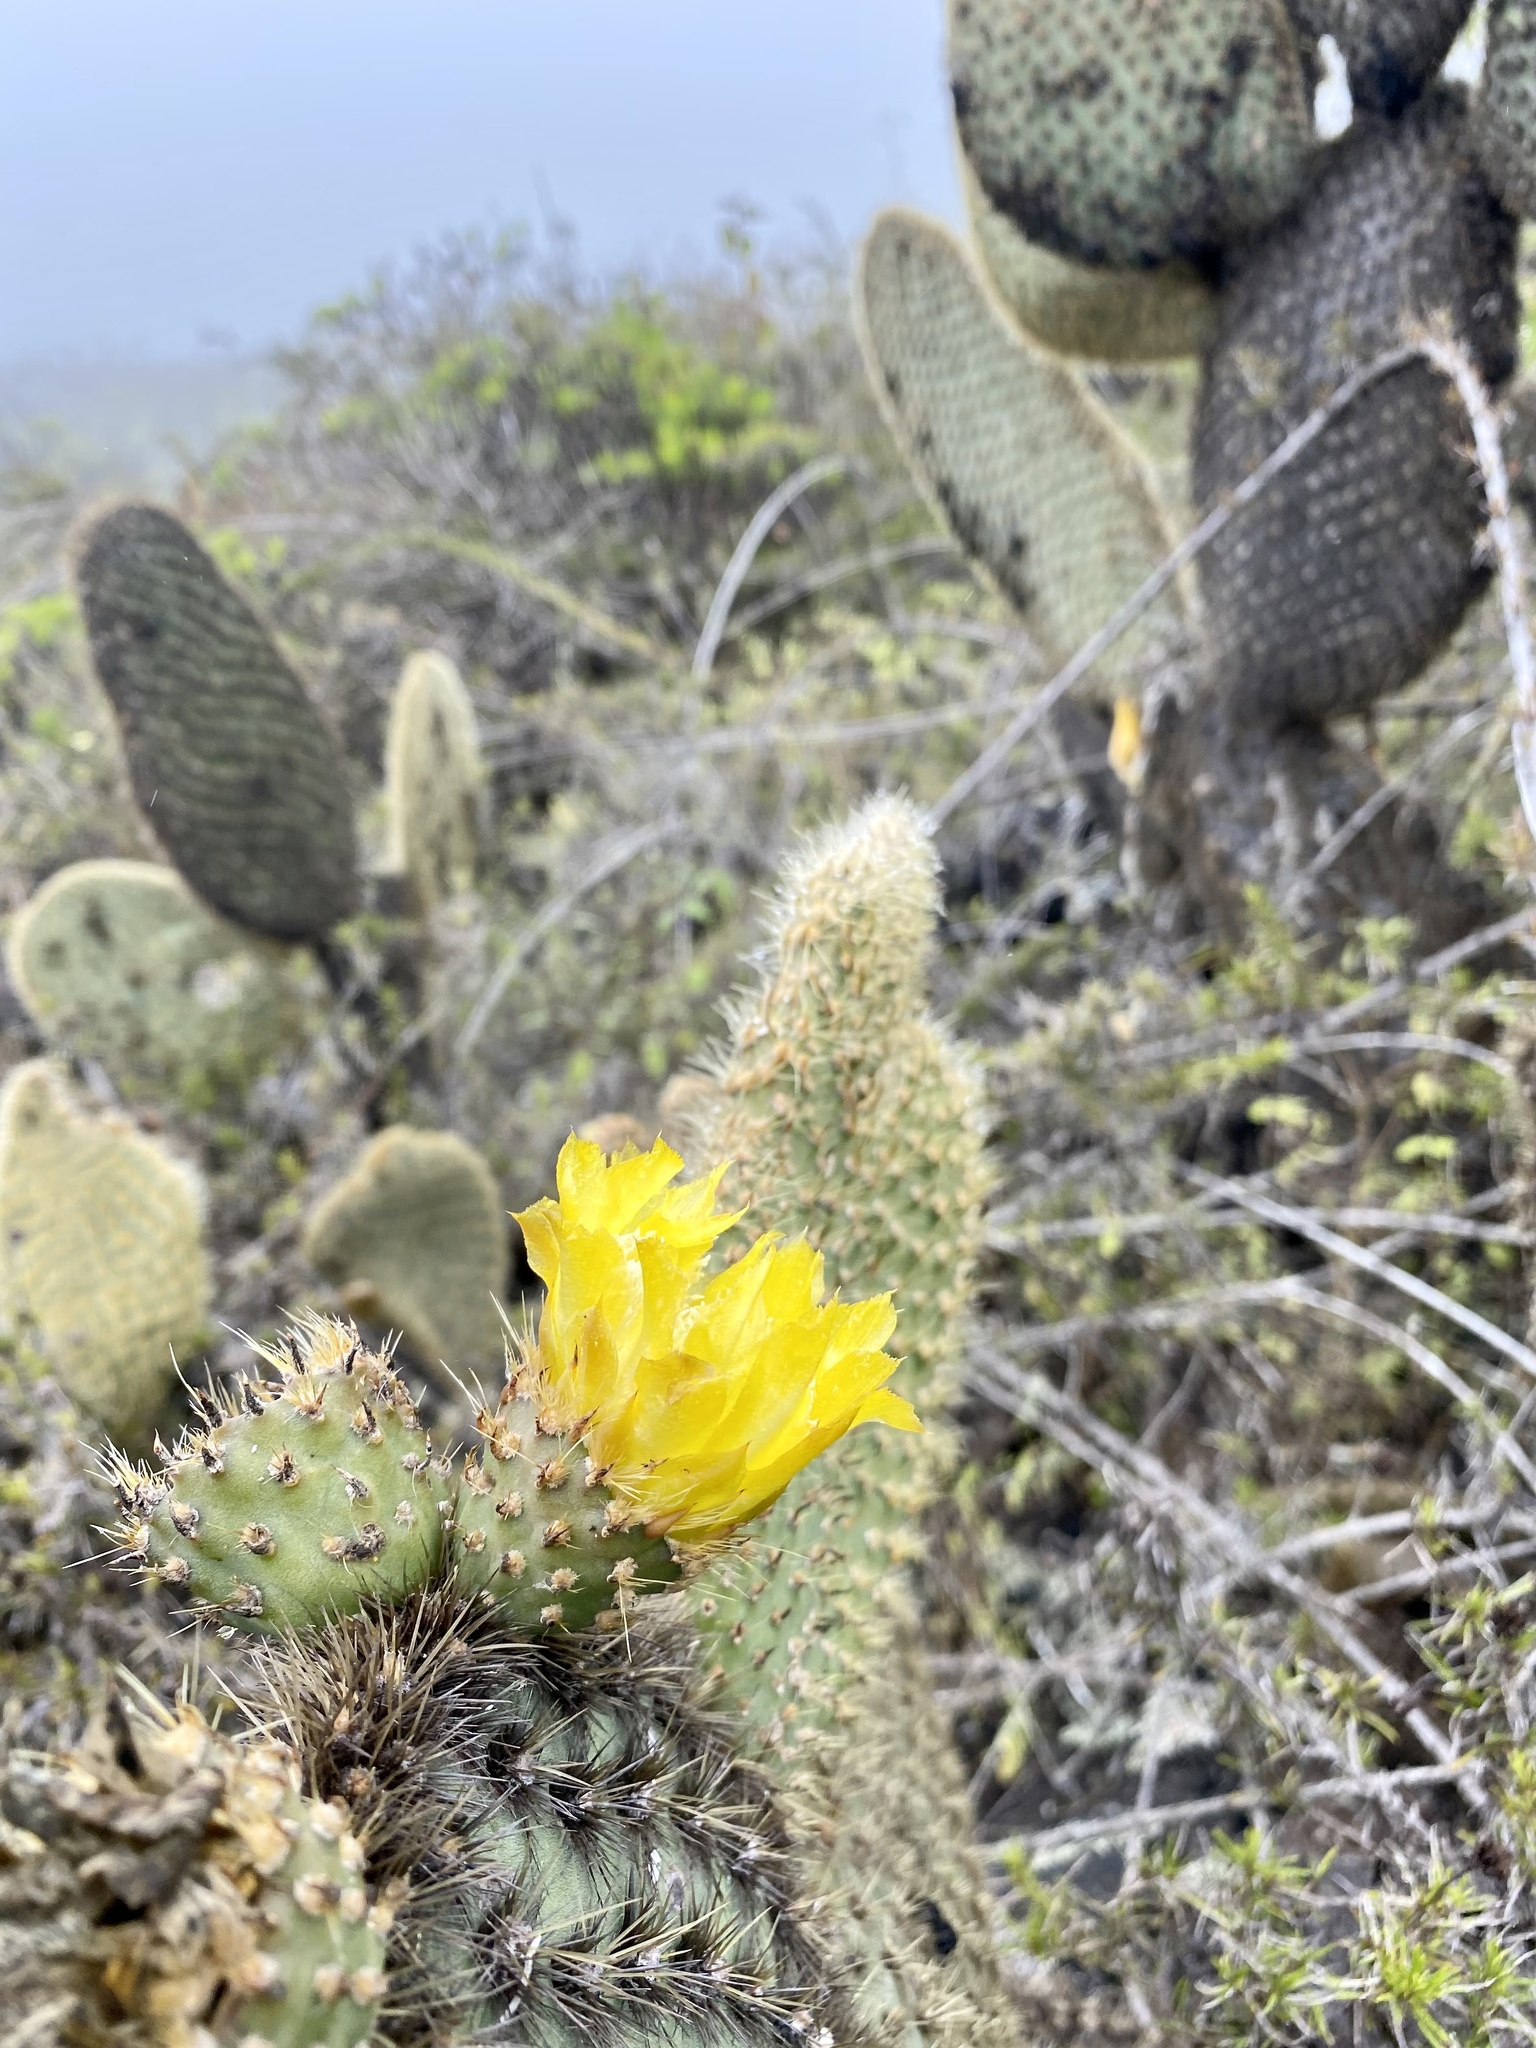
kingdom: Plantae
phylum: Tracheophyta
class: Magnoliopsida
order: Caryophyllales
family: Cactaceae
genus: Opuntia
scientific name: Opuntia galapageia
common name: Galápagos prickly pear
